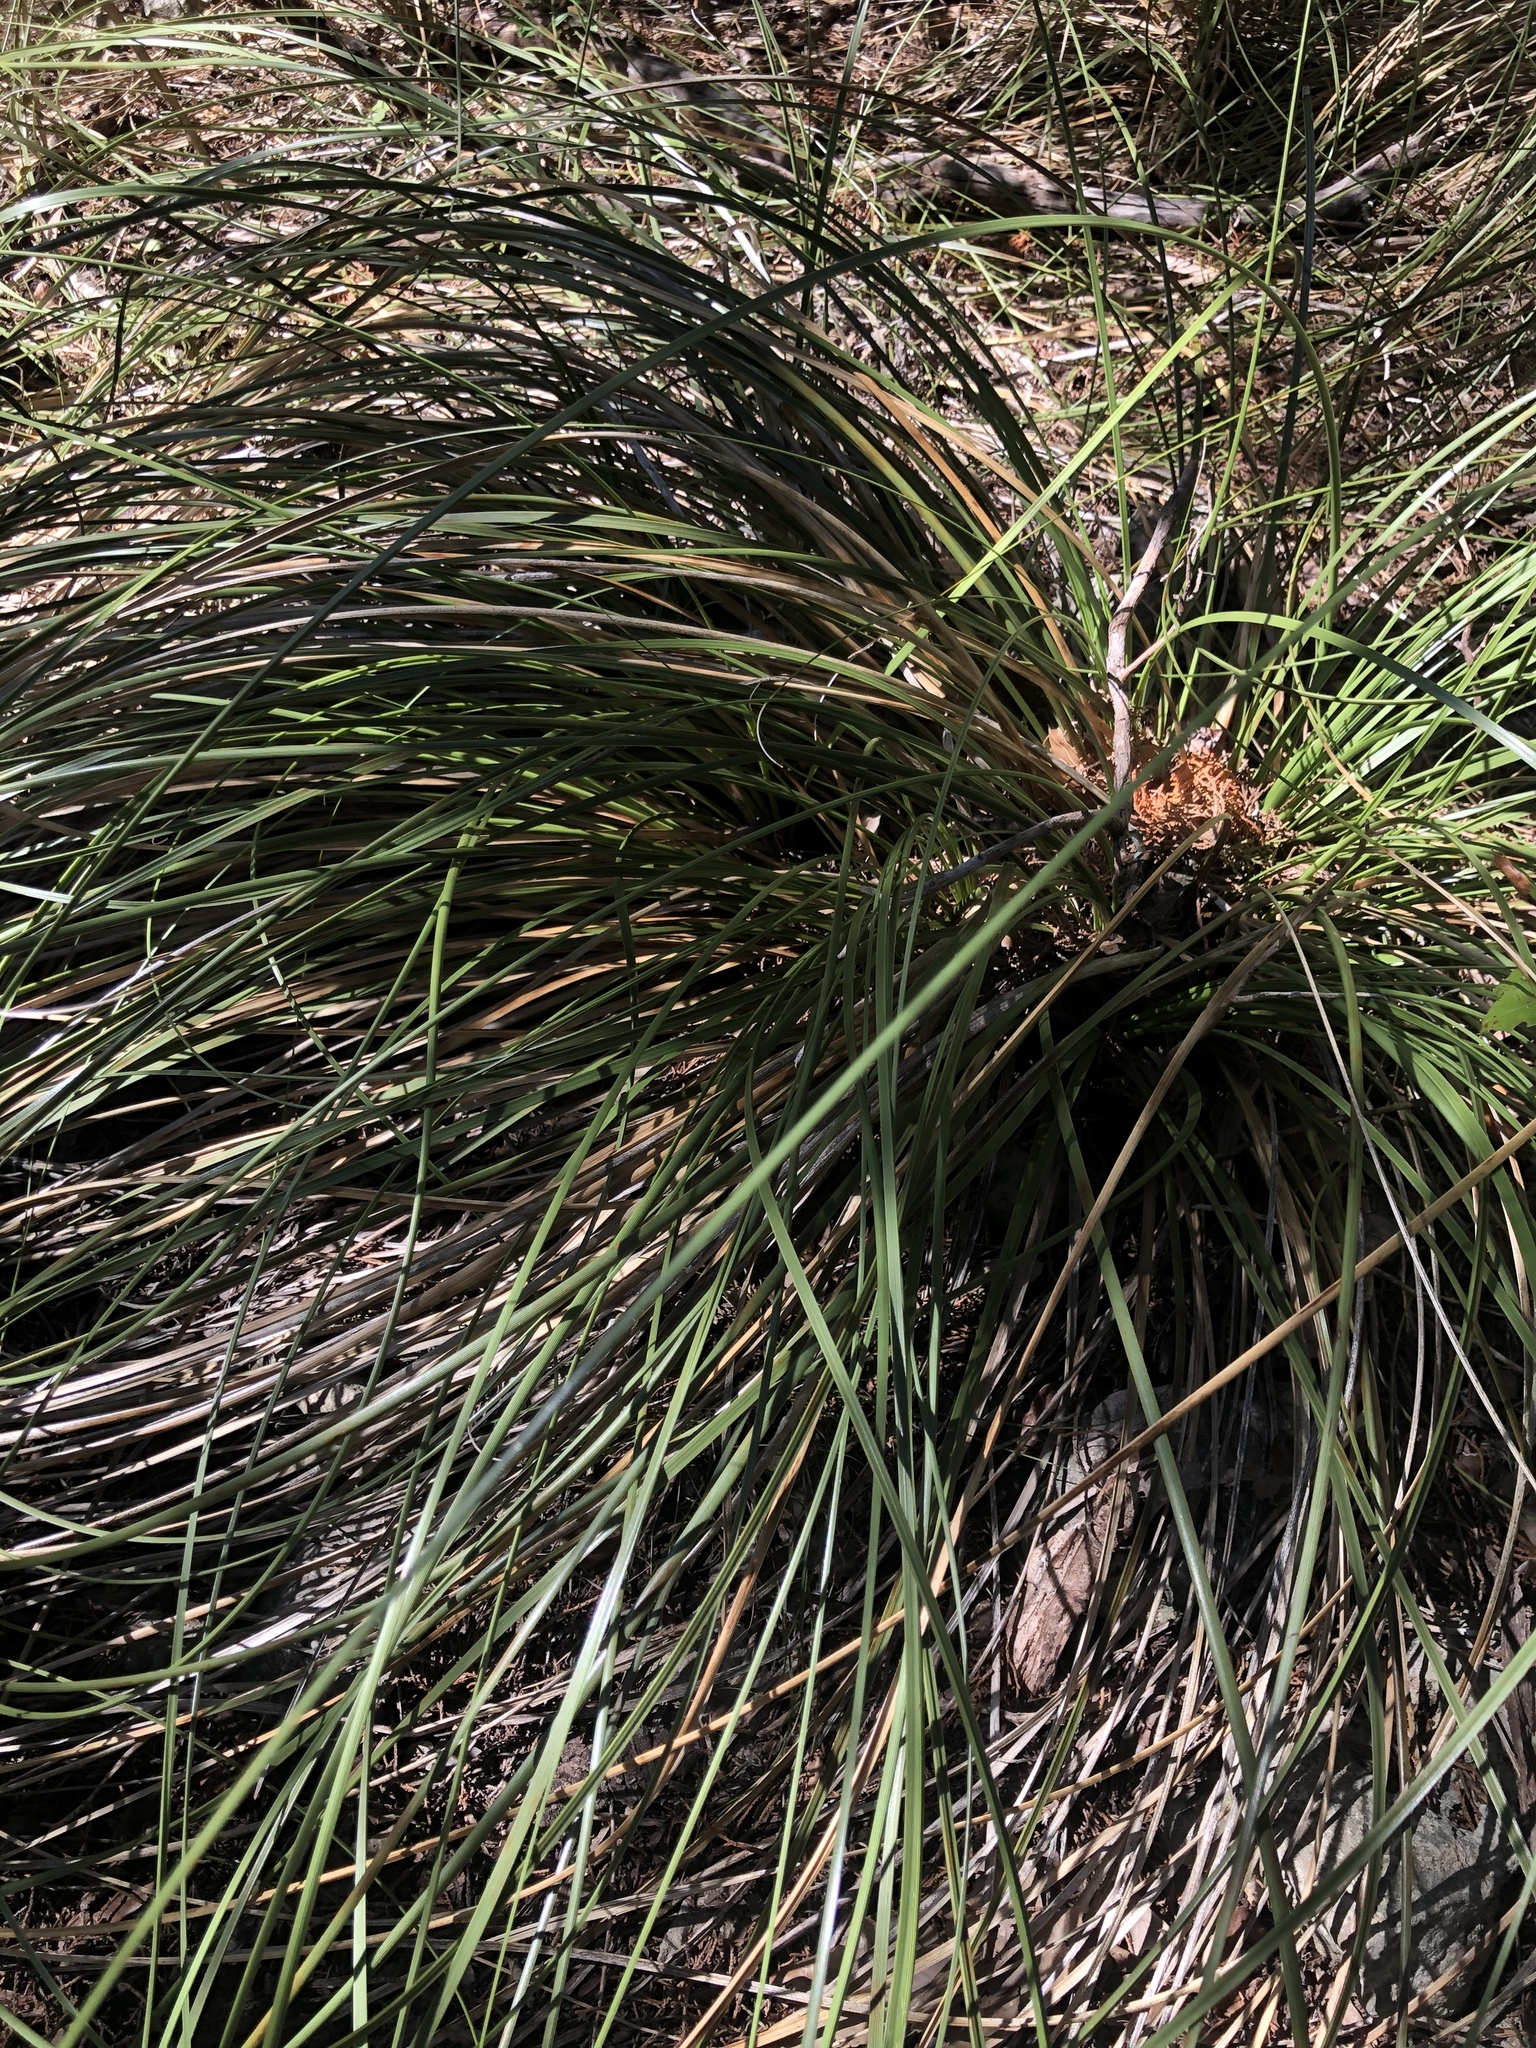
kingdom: Plantae
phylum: Tracheophyta
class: Liliopsida
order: Asparagales
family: Asparagaceae
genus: Nolina
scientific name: Nolina texana
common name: Texas sacahuiste
